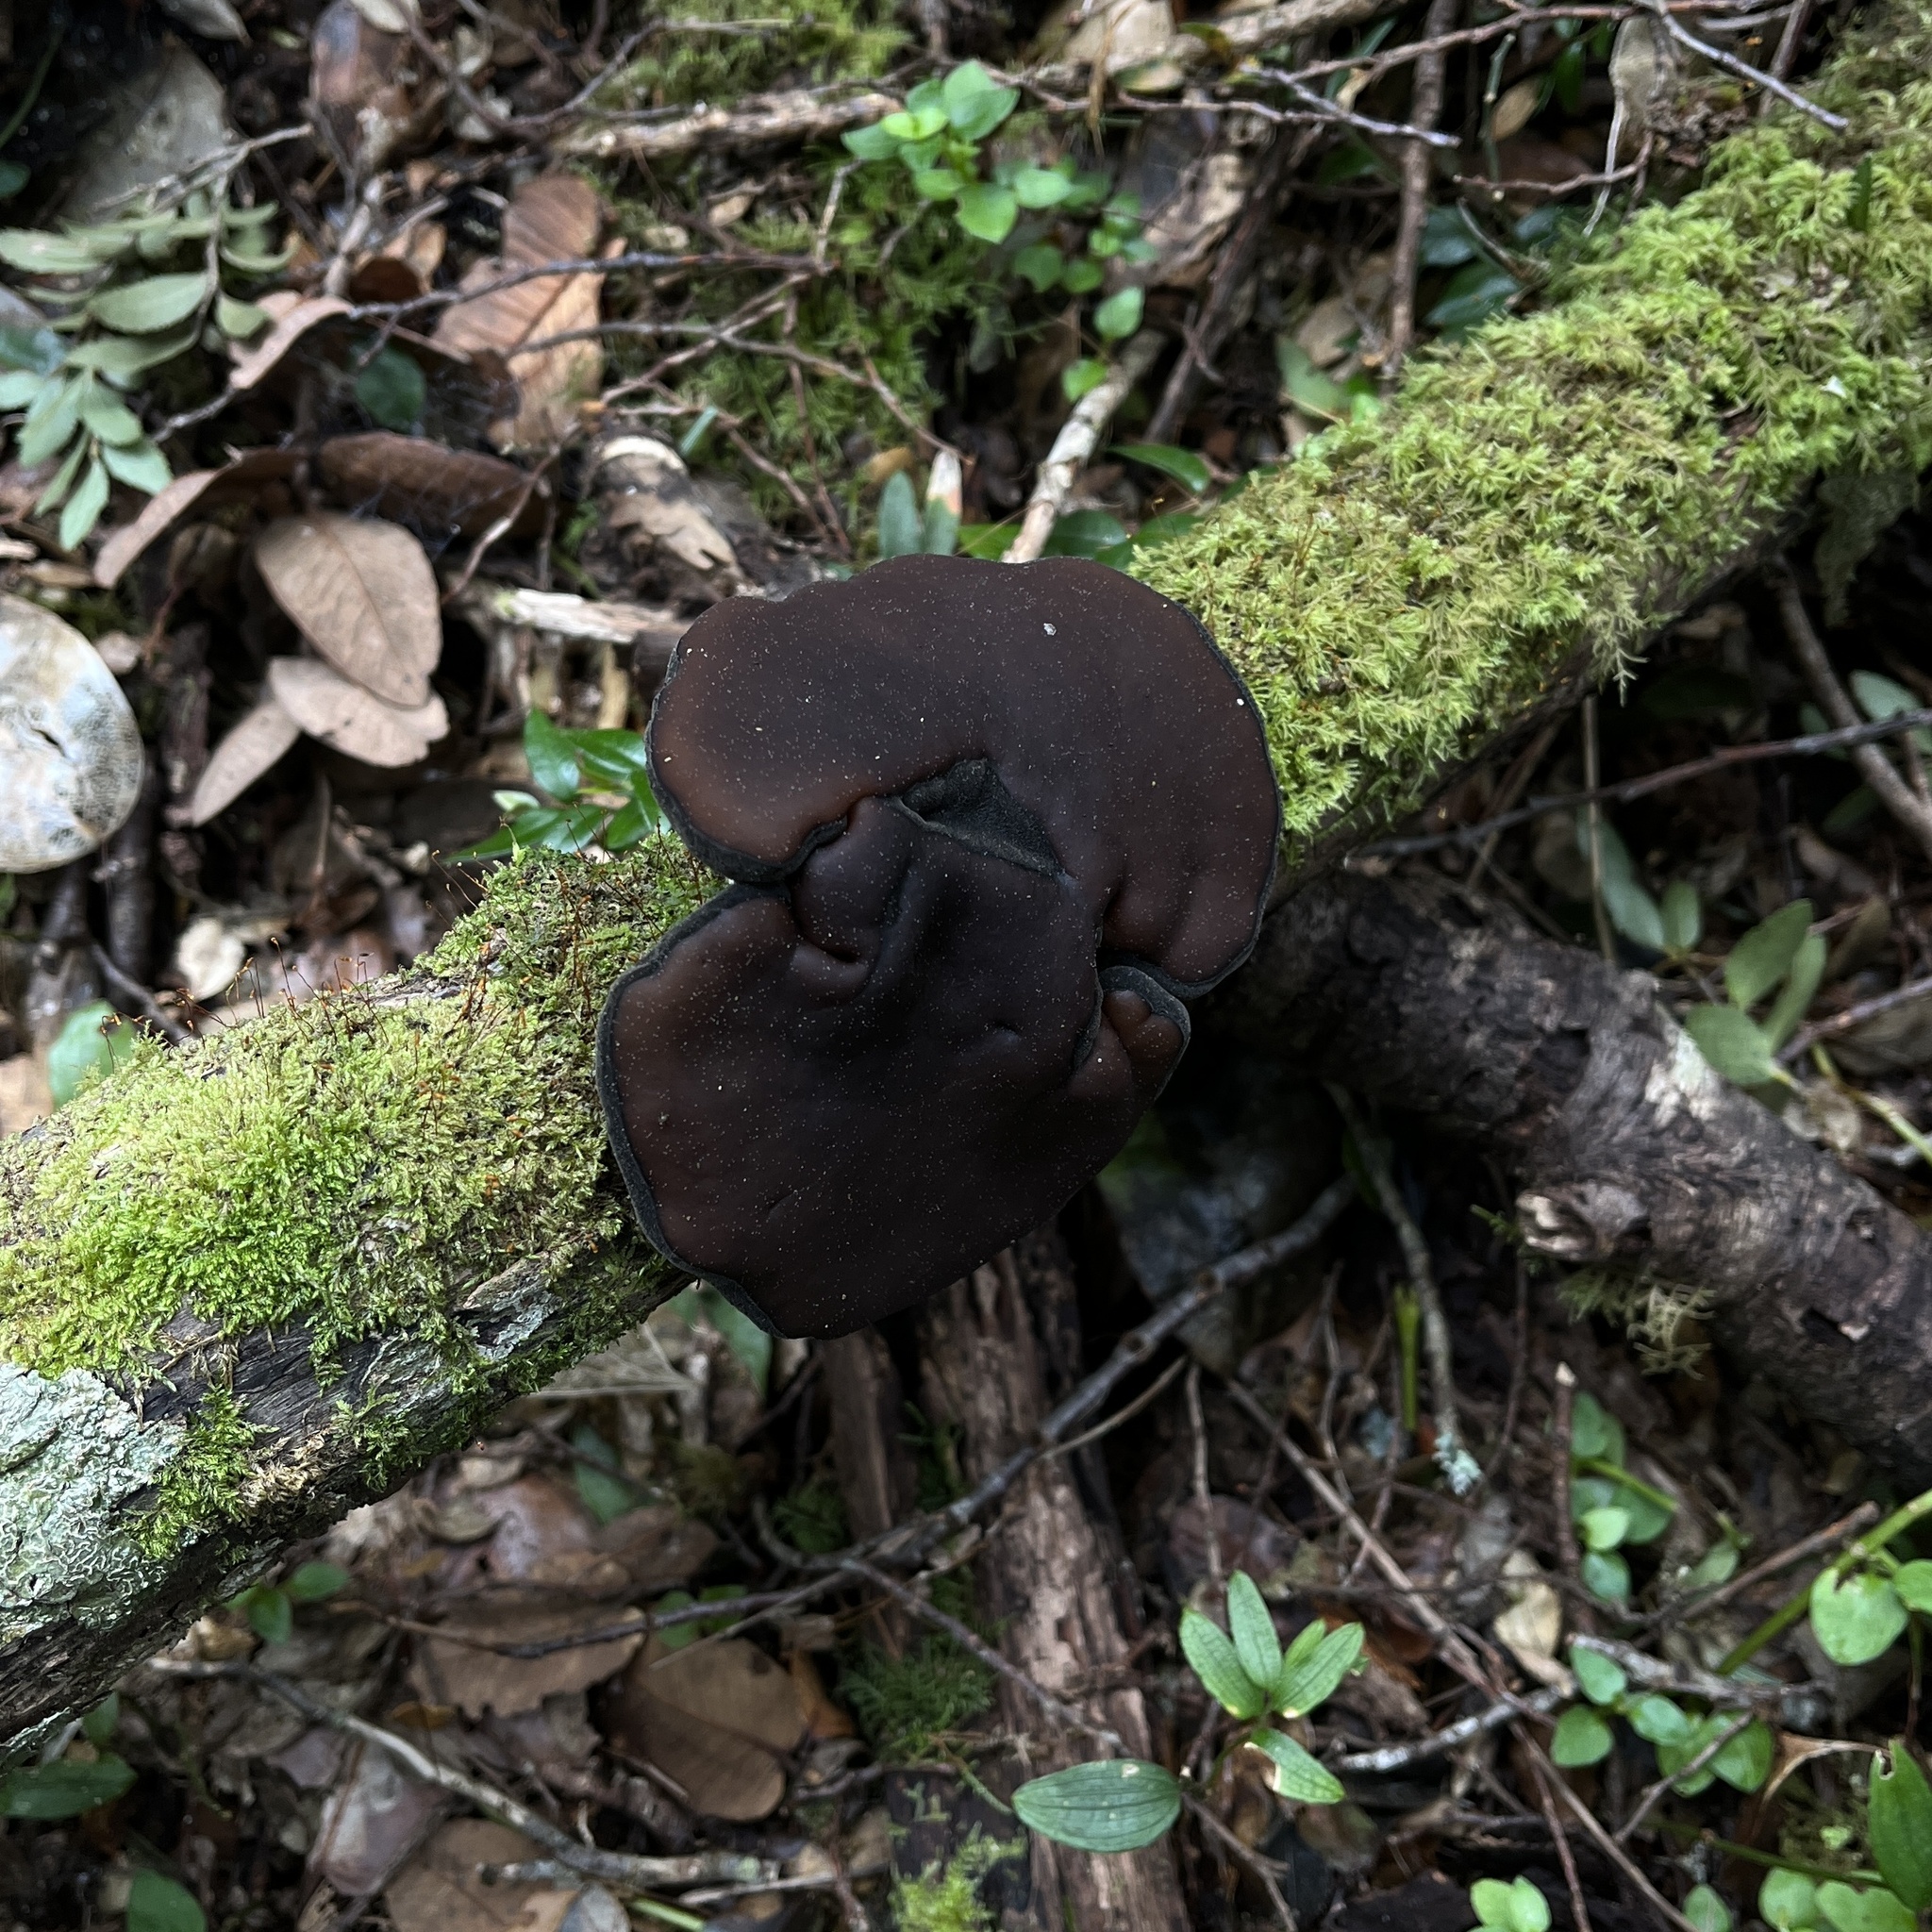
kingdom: Fungi
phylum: Ascomycota
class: Pezizomycetes
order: Pezizales
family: Sarcosomataceae
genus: Plectania
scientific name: Plectania chilensis
